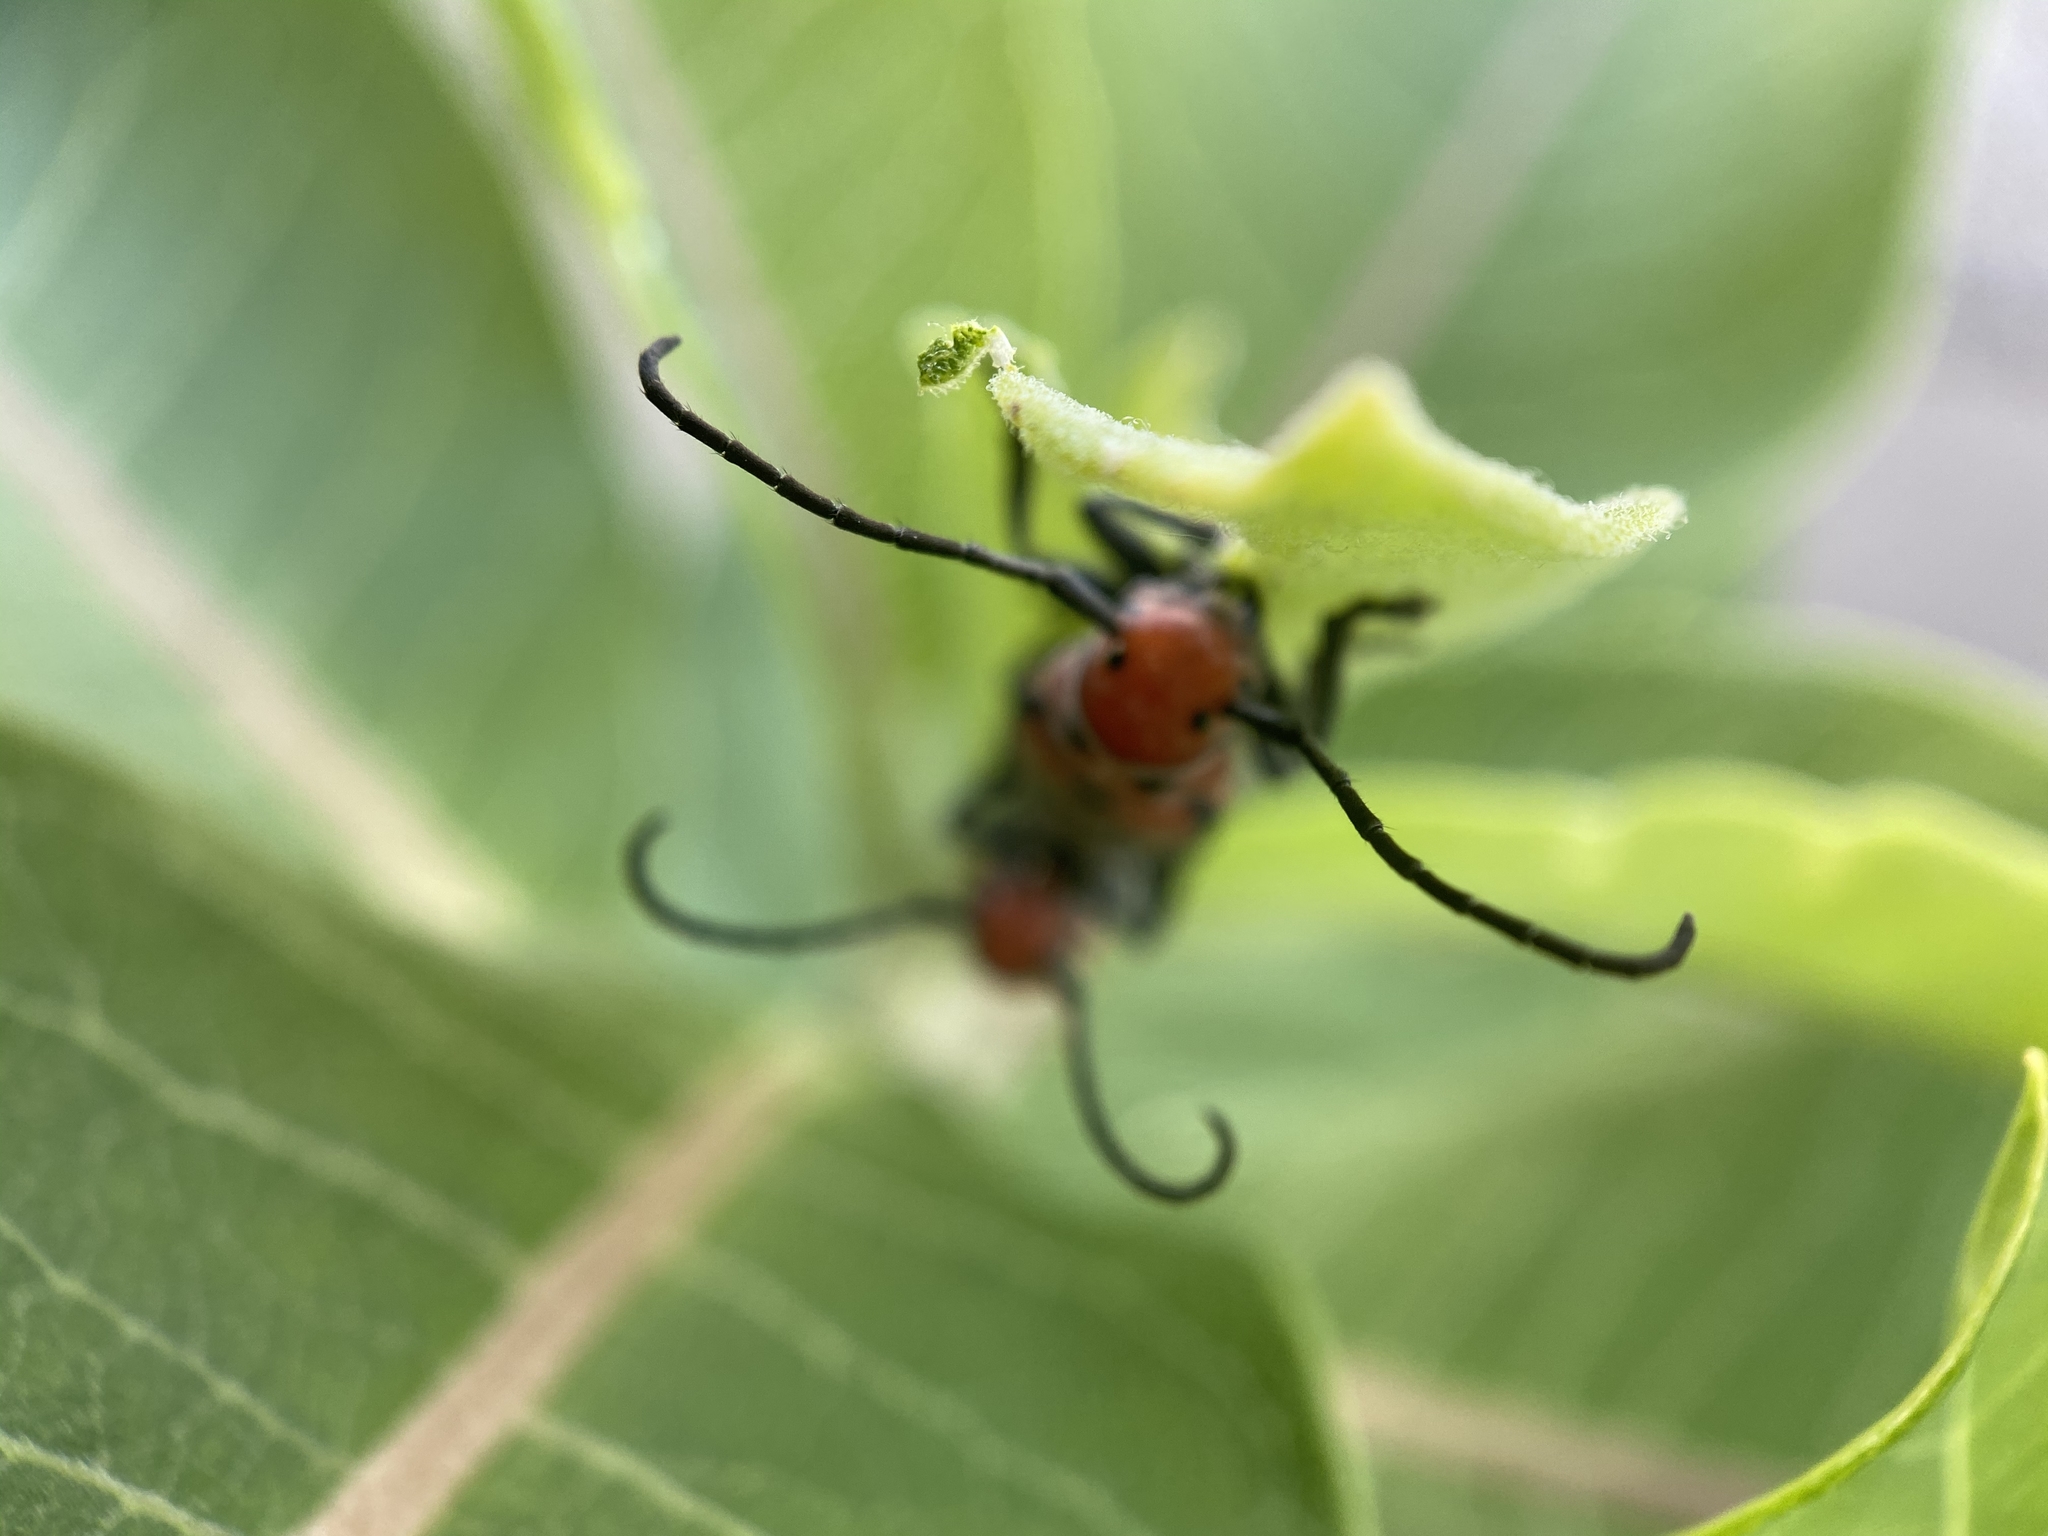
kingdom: Animalia
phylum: Arthropoda
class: Insecta
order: Coleoptera
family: Cerambycidae
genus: Tetraopes
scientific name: Tetraopes tetrophthalmus
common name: Red milkweed beetle
